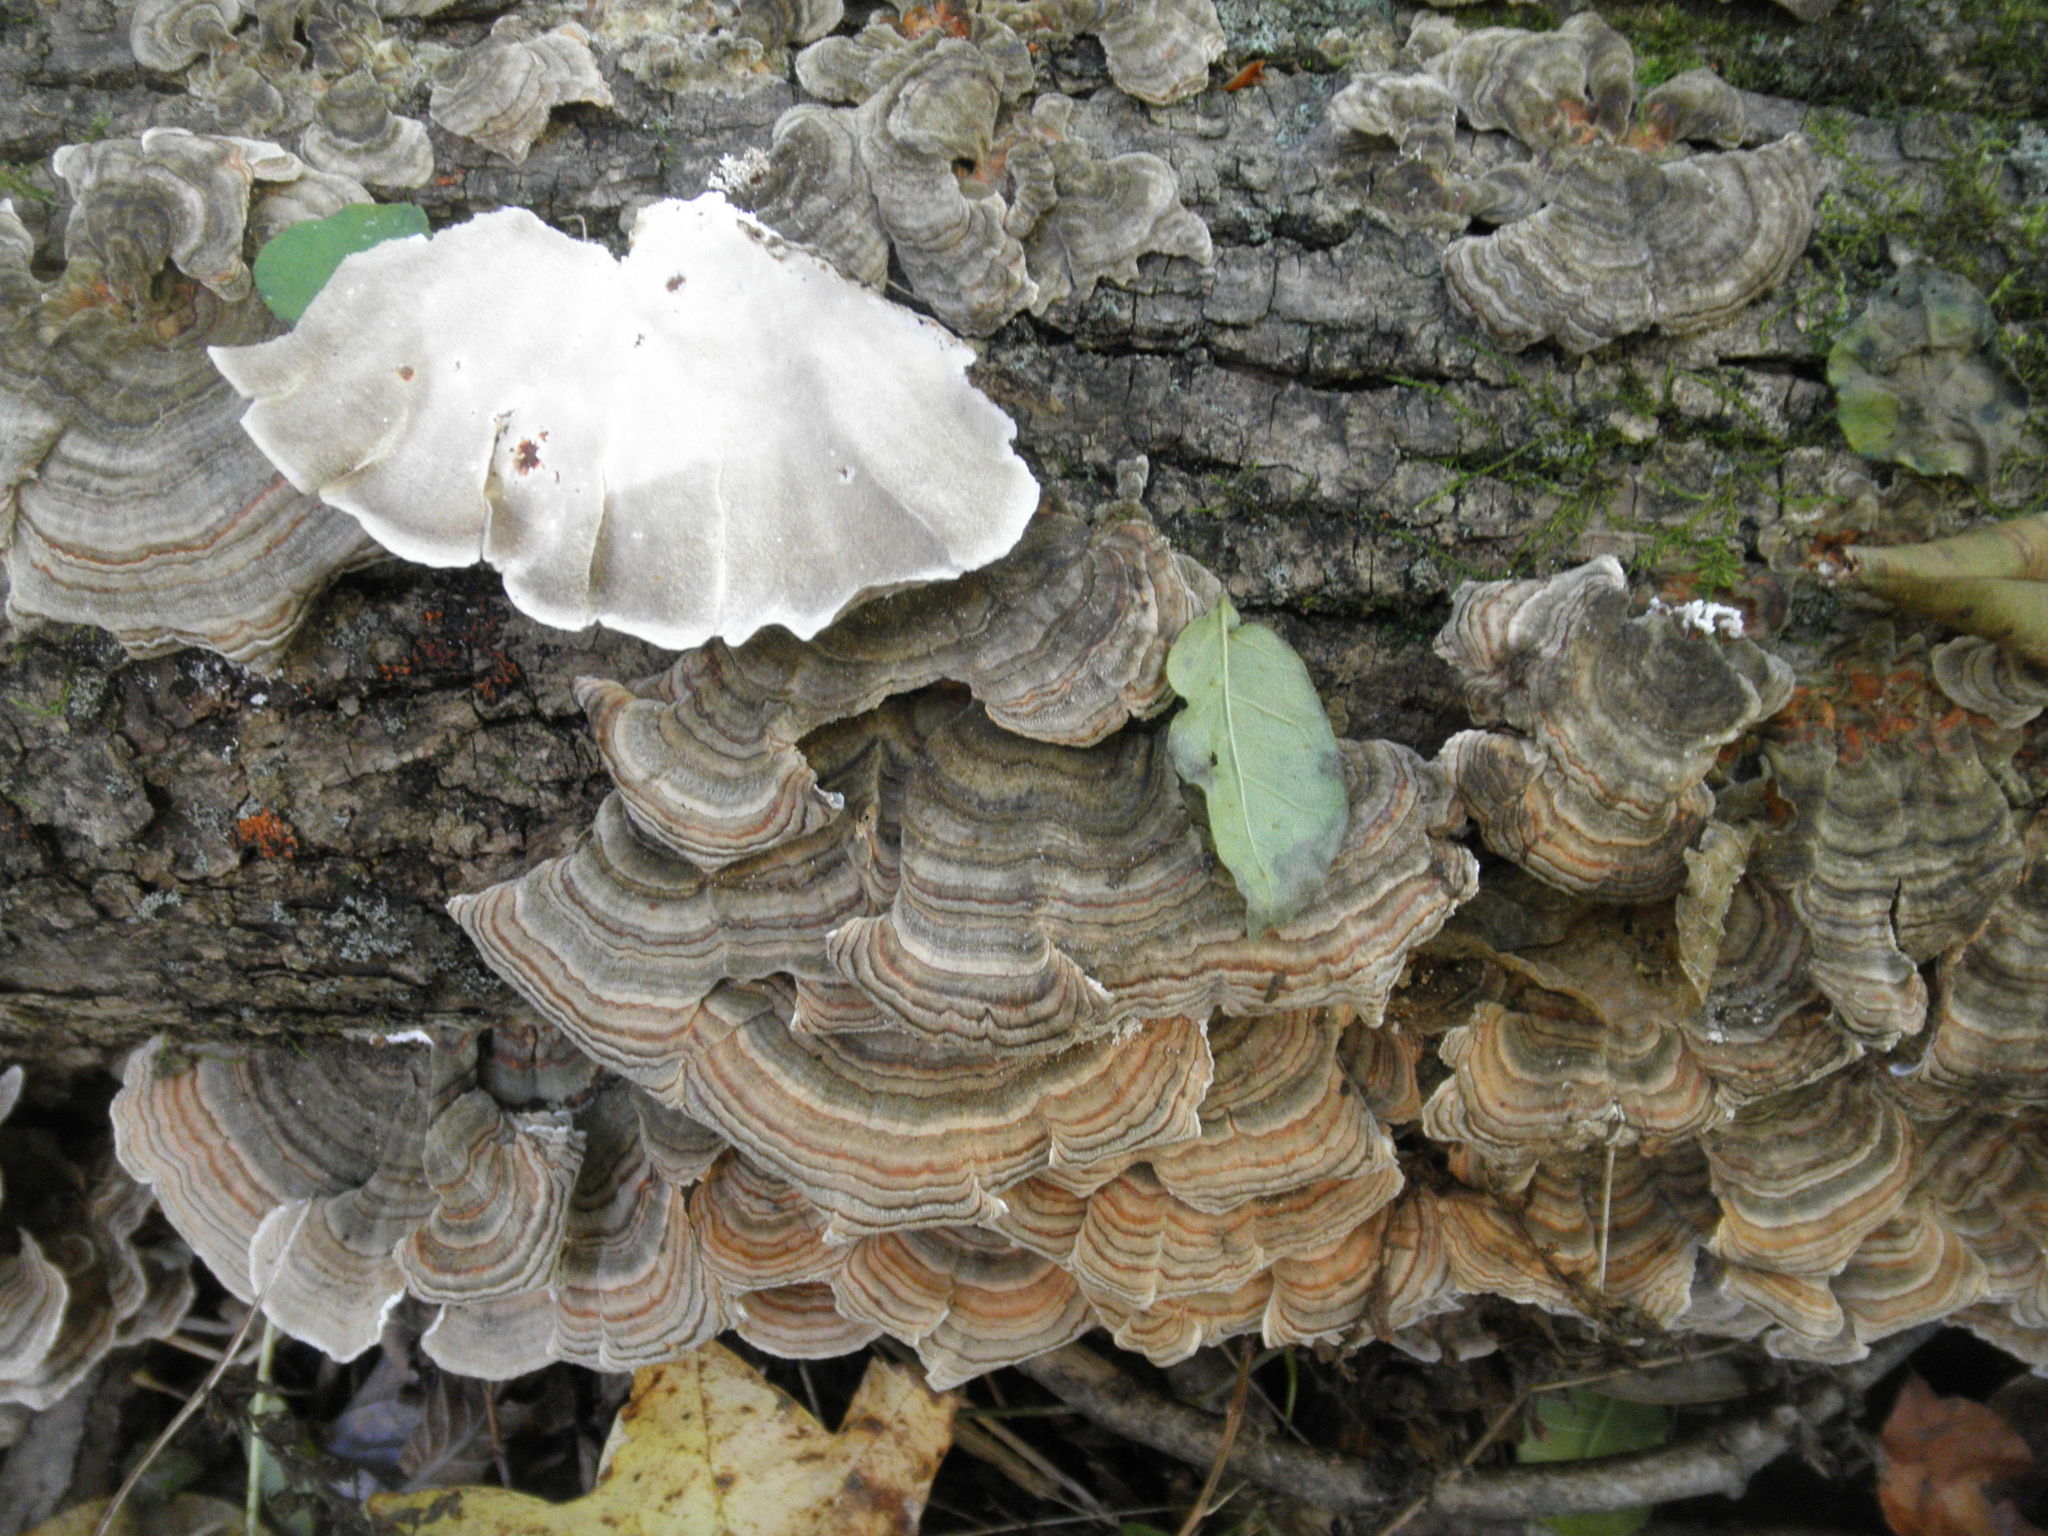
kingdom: Fungi
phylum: Basidiomycota
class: Agaricomycetes
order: Polyporales
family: Polyporaceae
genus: Trametes
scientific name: Trametes versicolor
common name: Turkeytail
